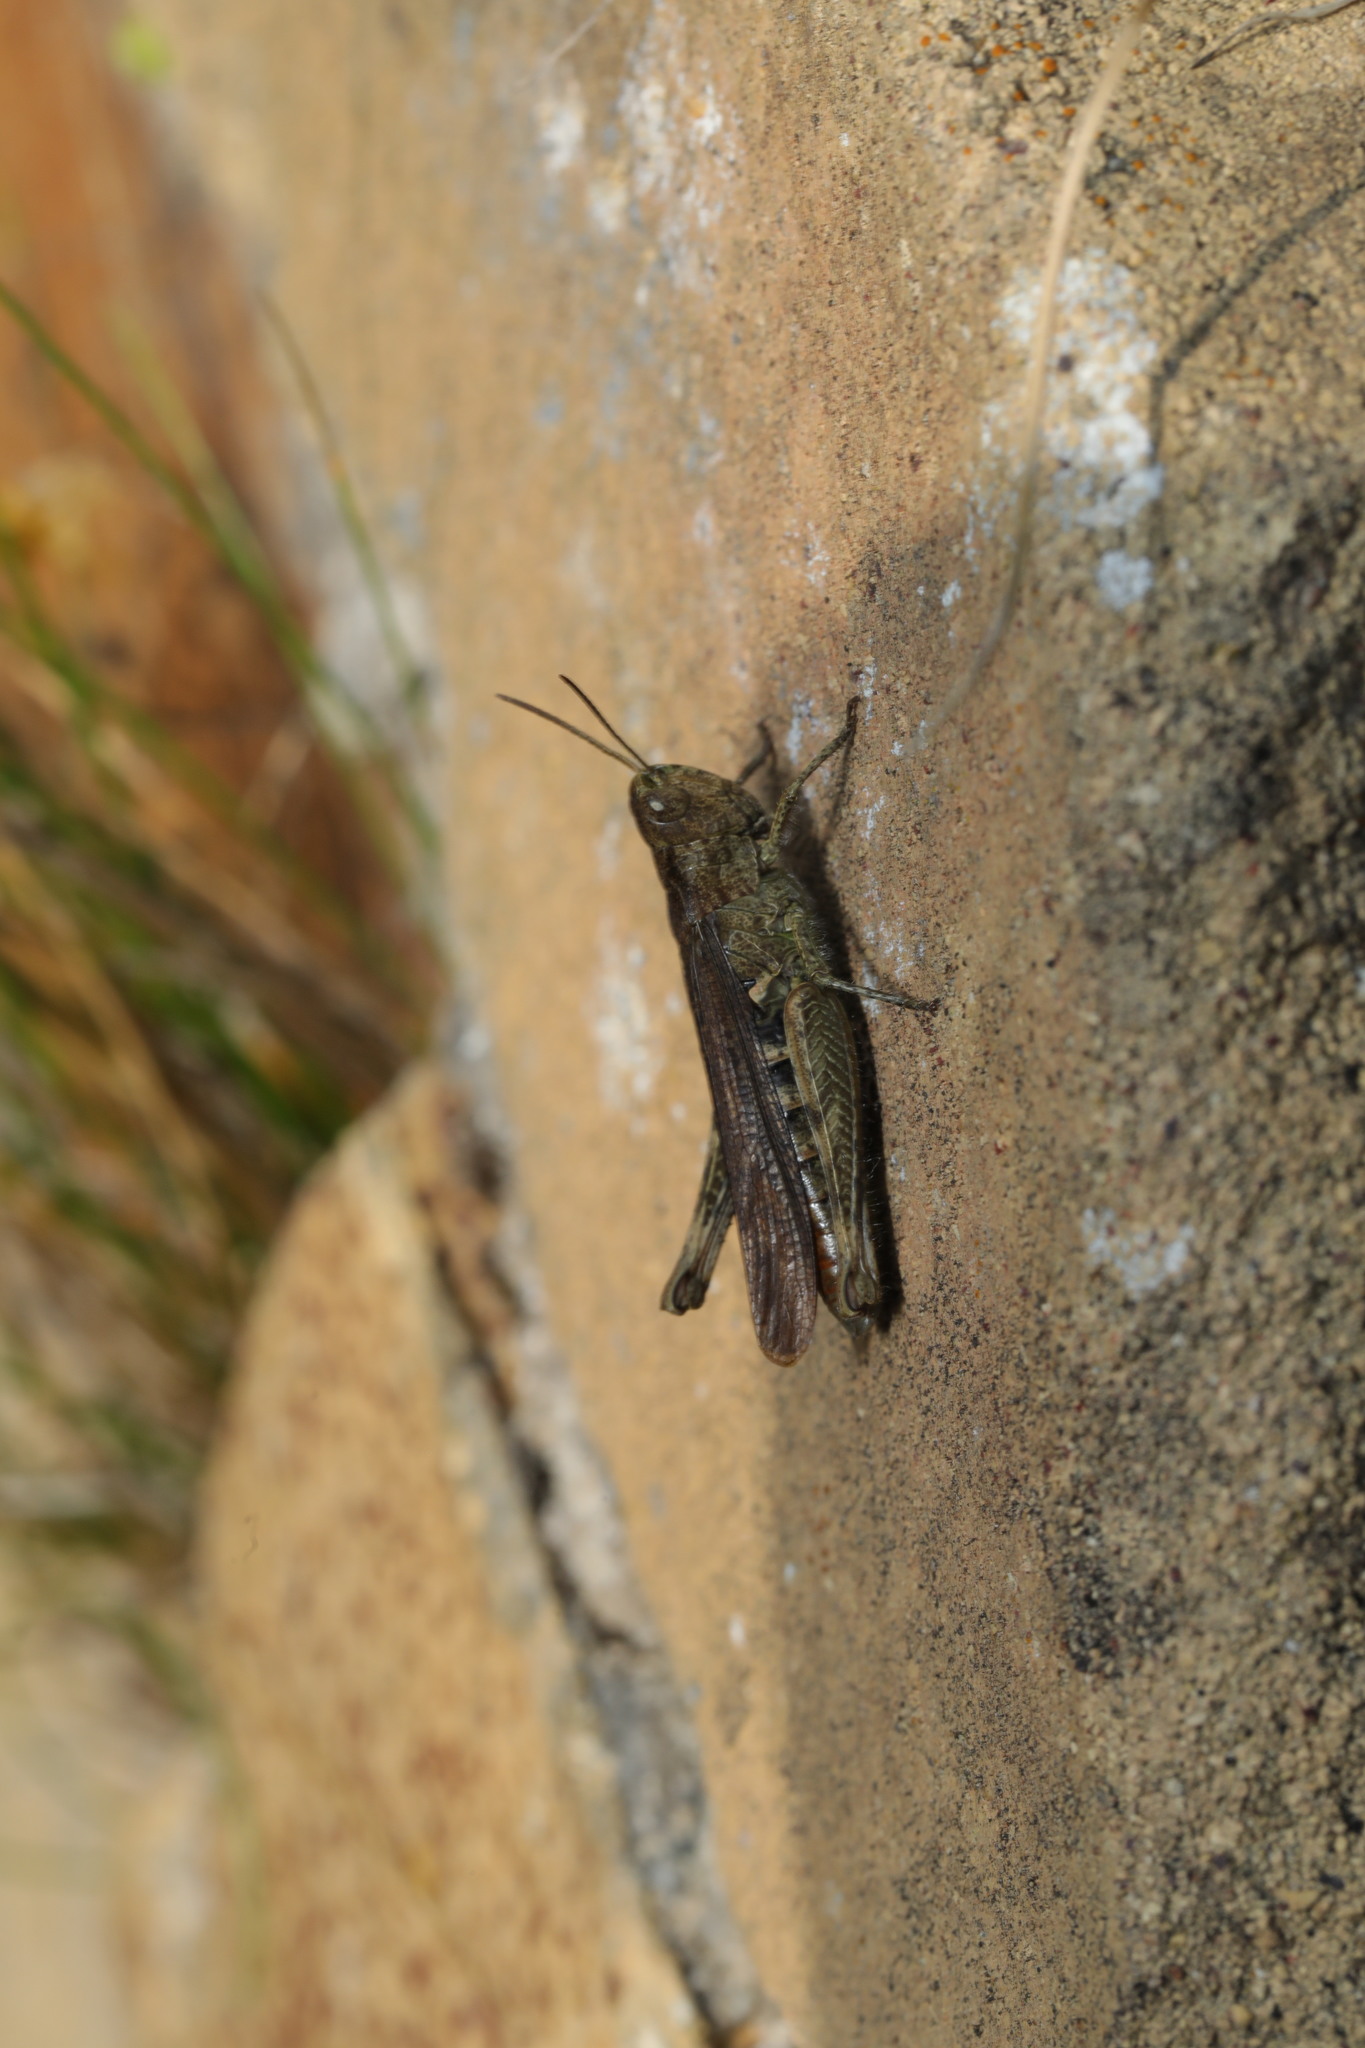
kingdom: Animalia
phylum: Arthropoda
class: Insecta
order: Orthoptera
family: Acrididae
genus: Chorthippus
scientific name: Chorthippus brunneus
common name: Field grasshopper
